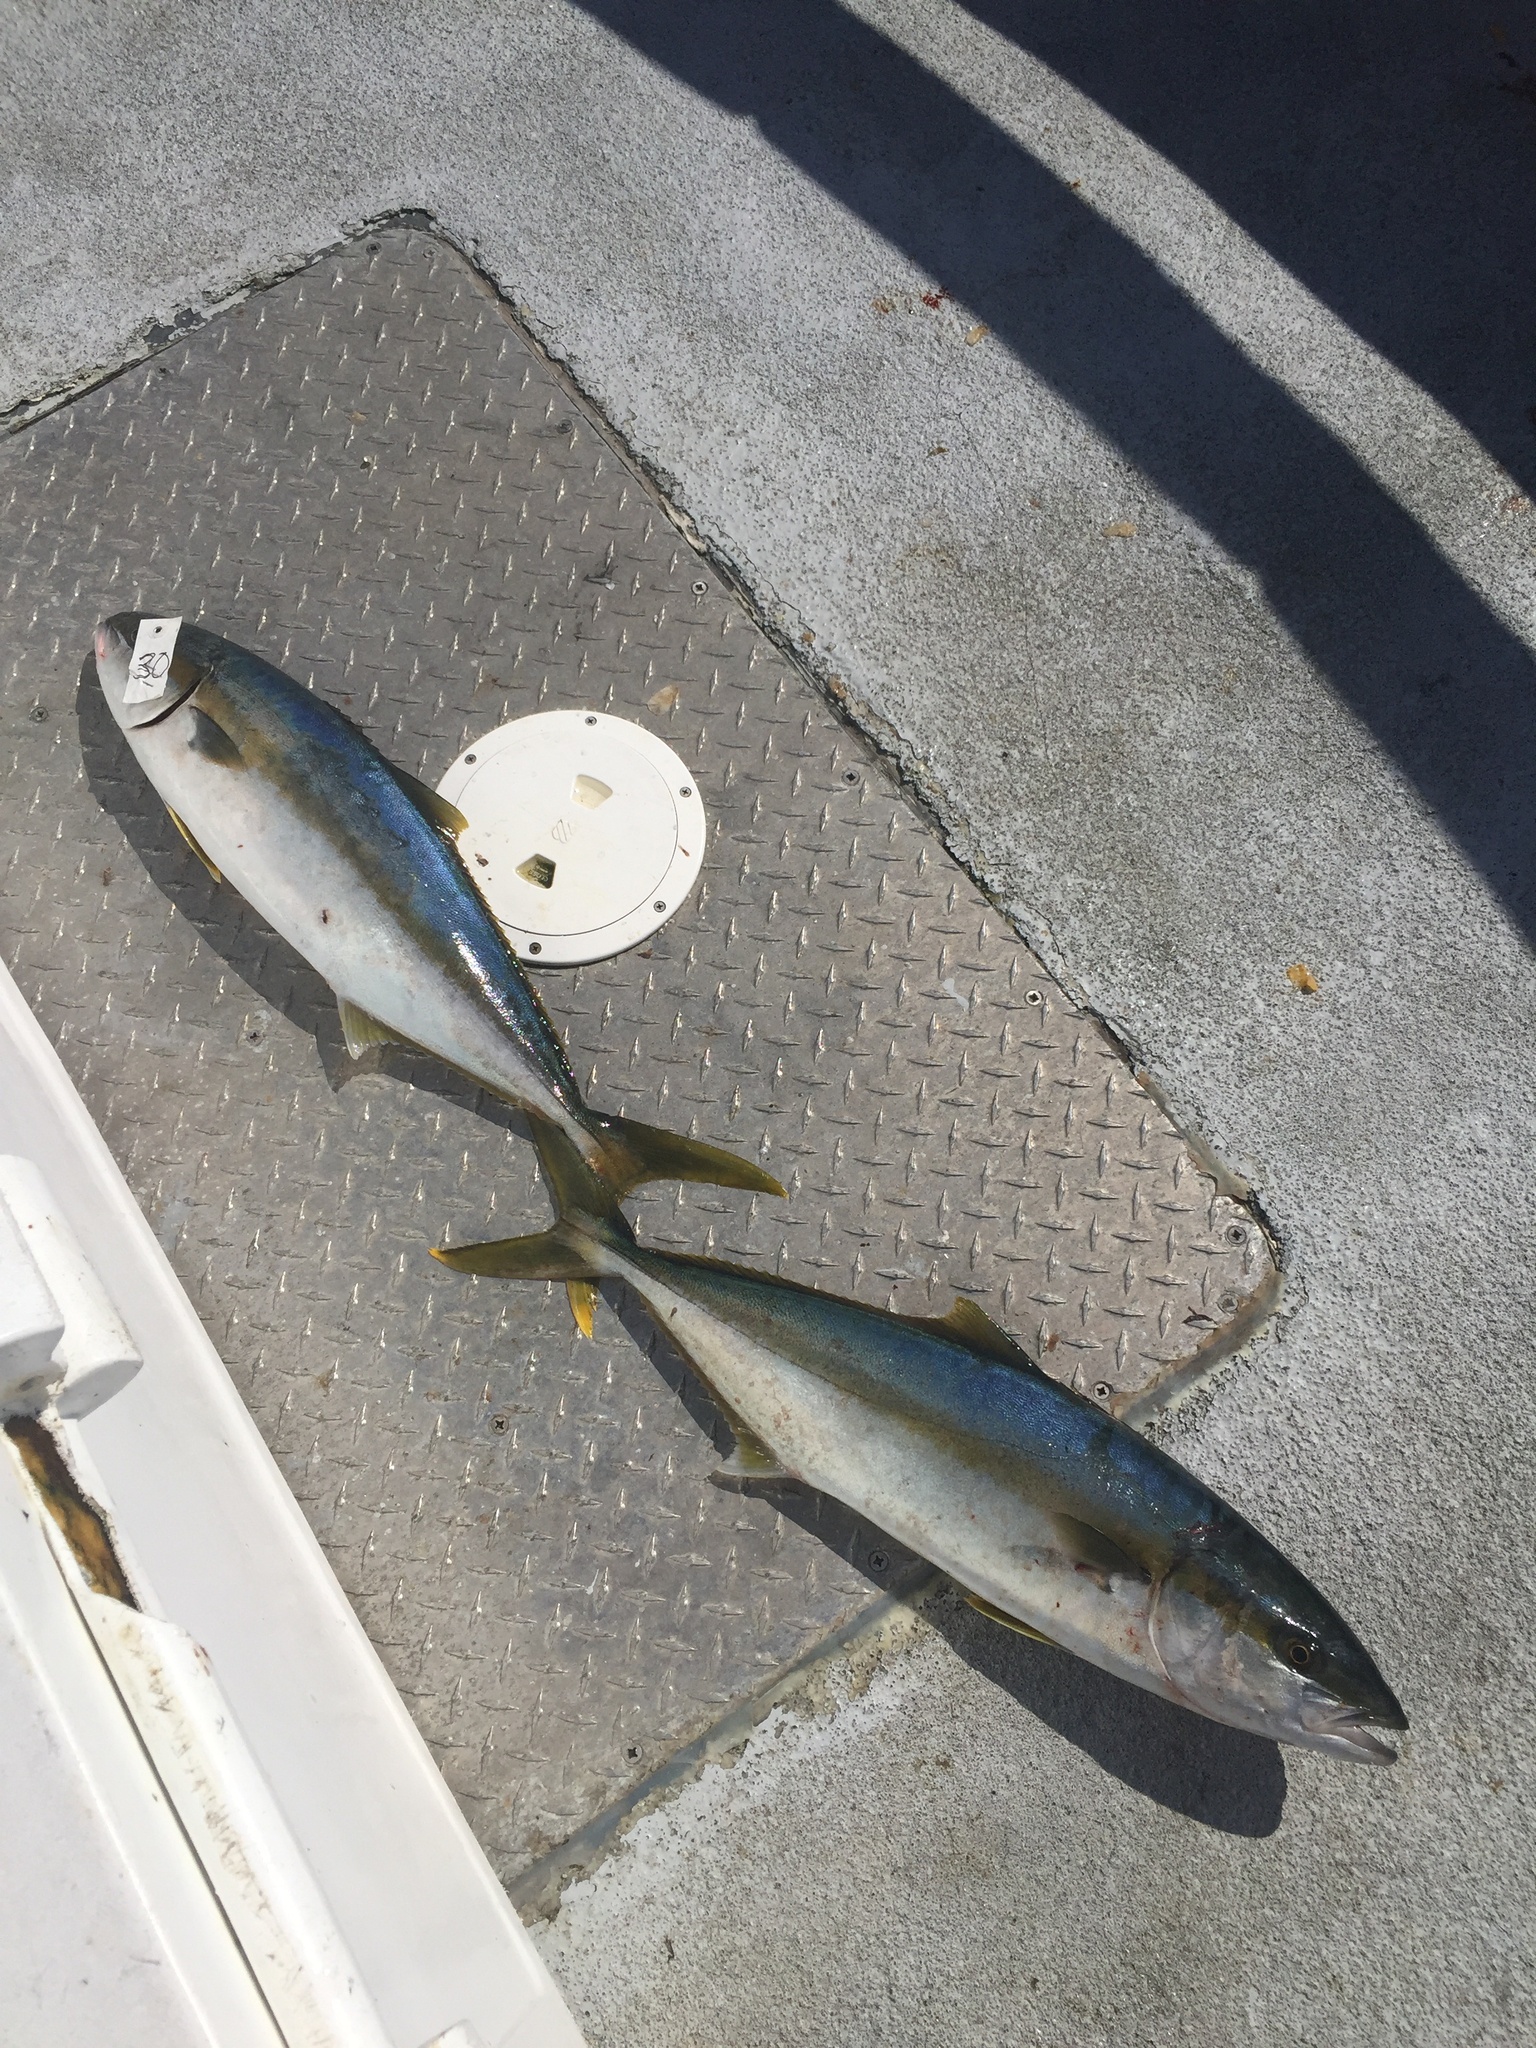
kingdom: Animalia
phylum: Chordata
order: Perciformes
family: Carangidae
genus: Seriola
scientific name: Seriola lalandi
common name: Yellowtail kingfish
